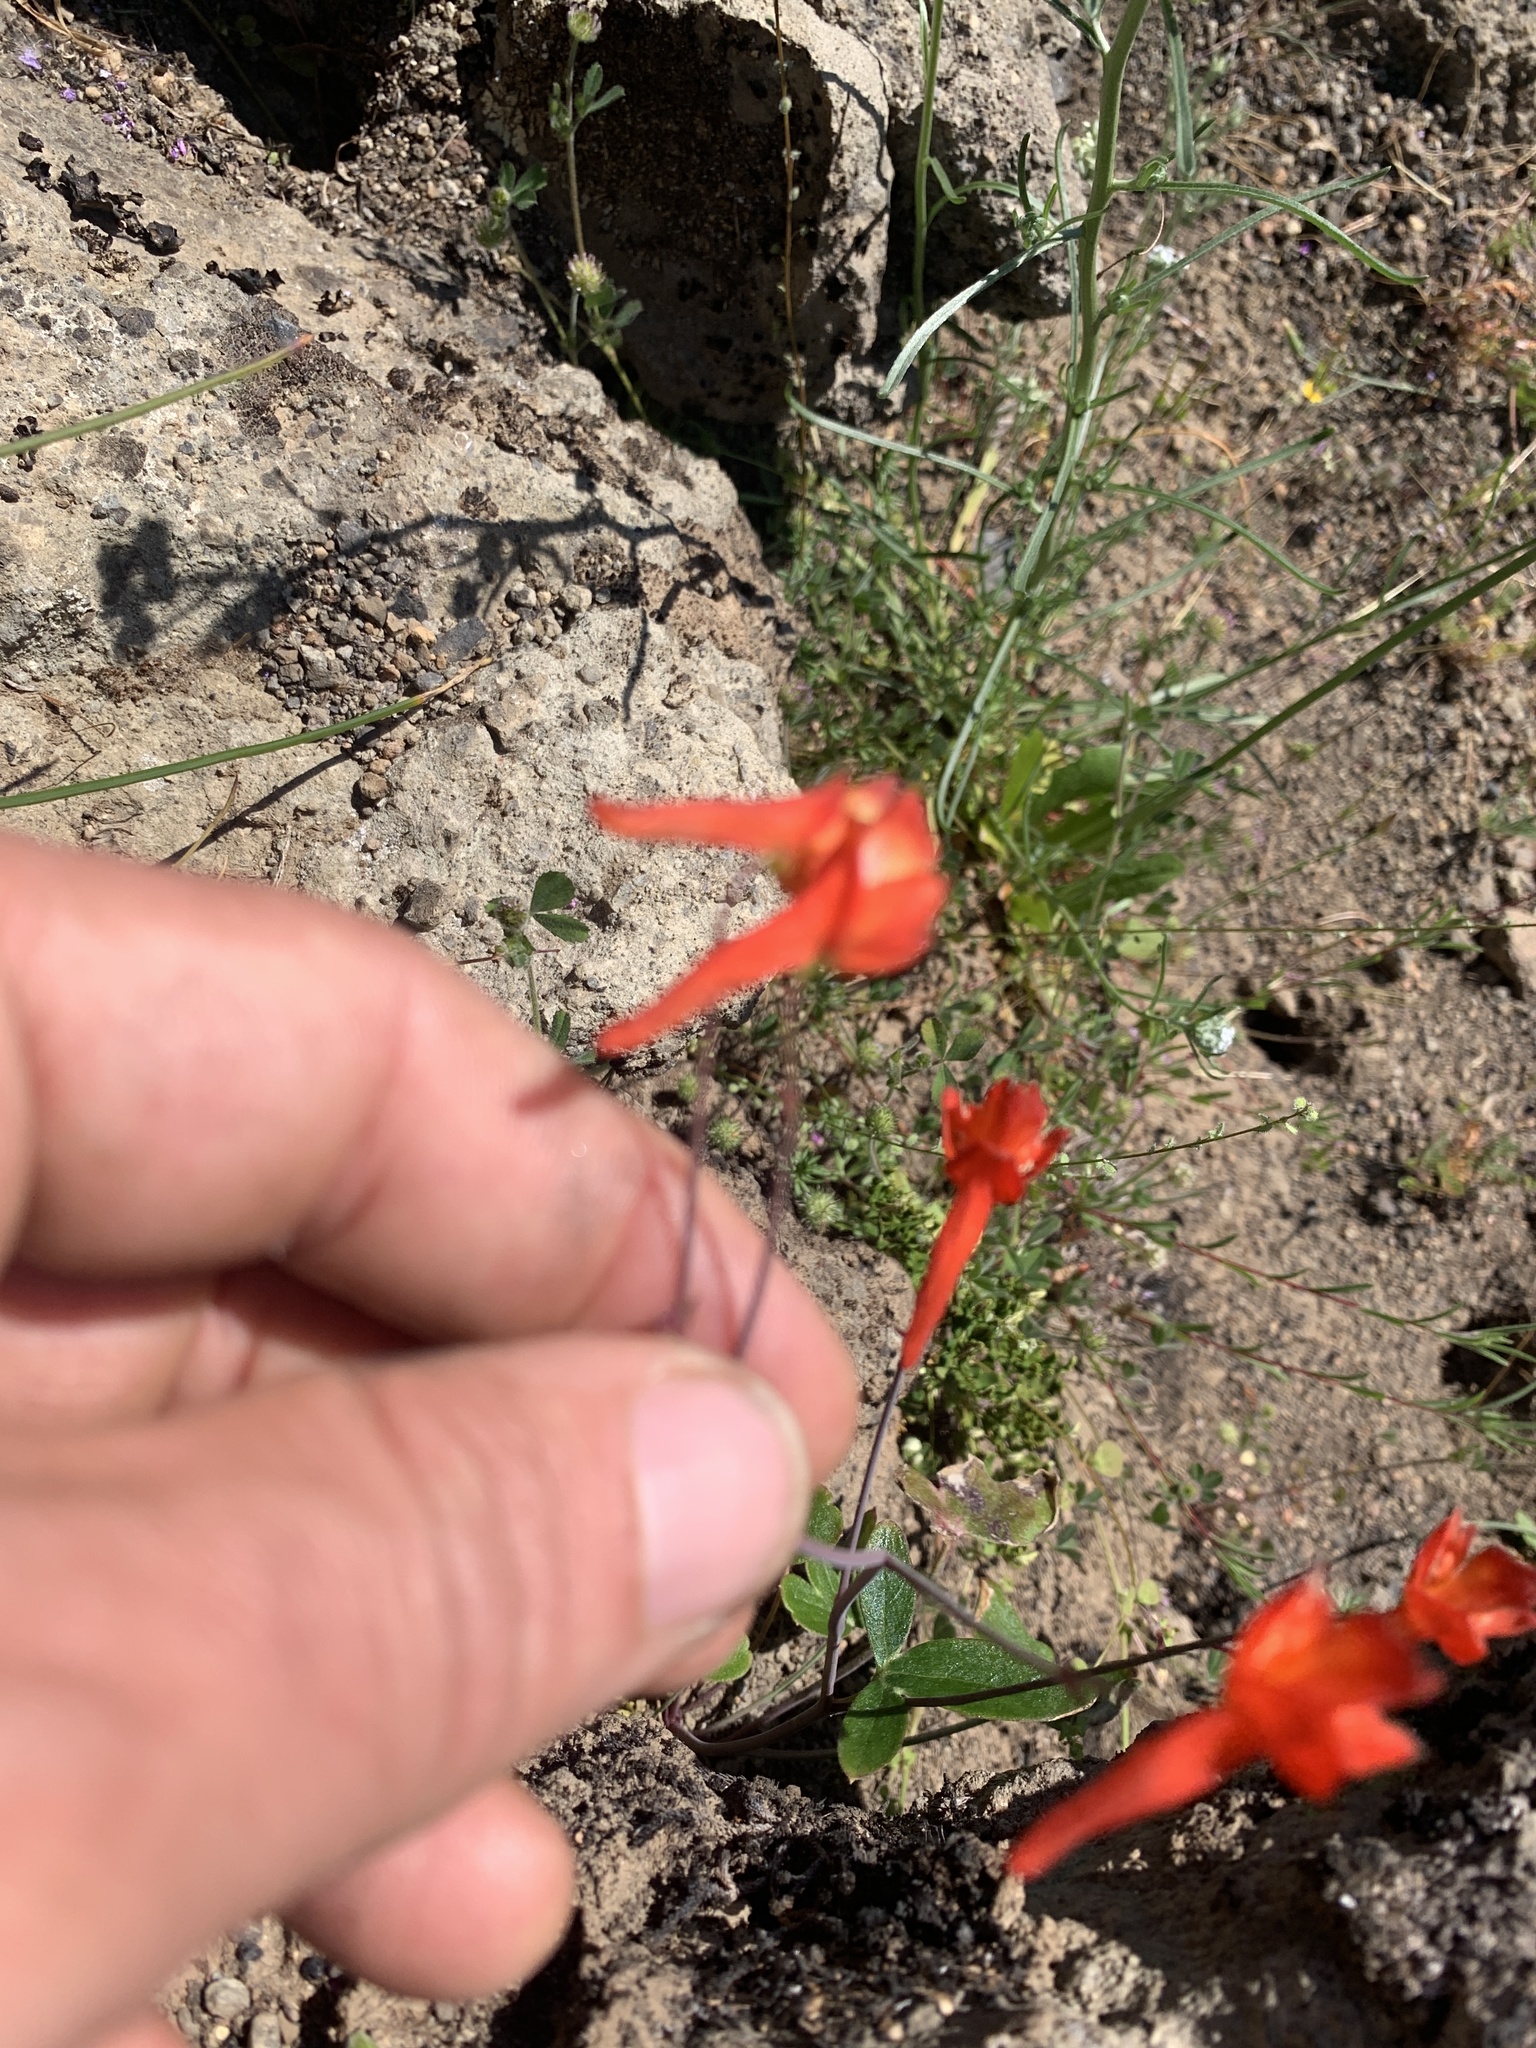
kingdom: Plantae
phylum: Tracheophyta
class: Magnoliopsida
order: Ranunculales
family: Ranunculaceae
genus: Delphinium
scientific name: Delphinium nudicaule
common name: Red larkspur
